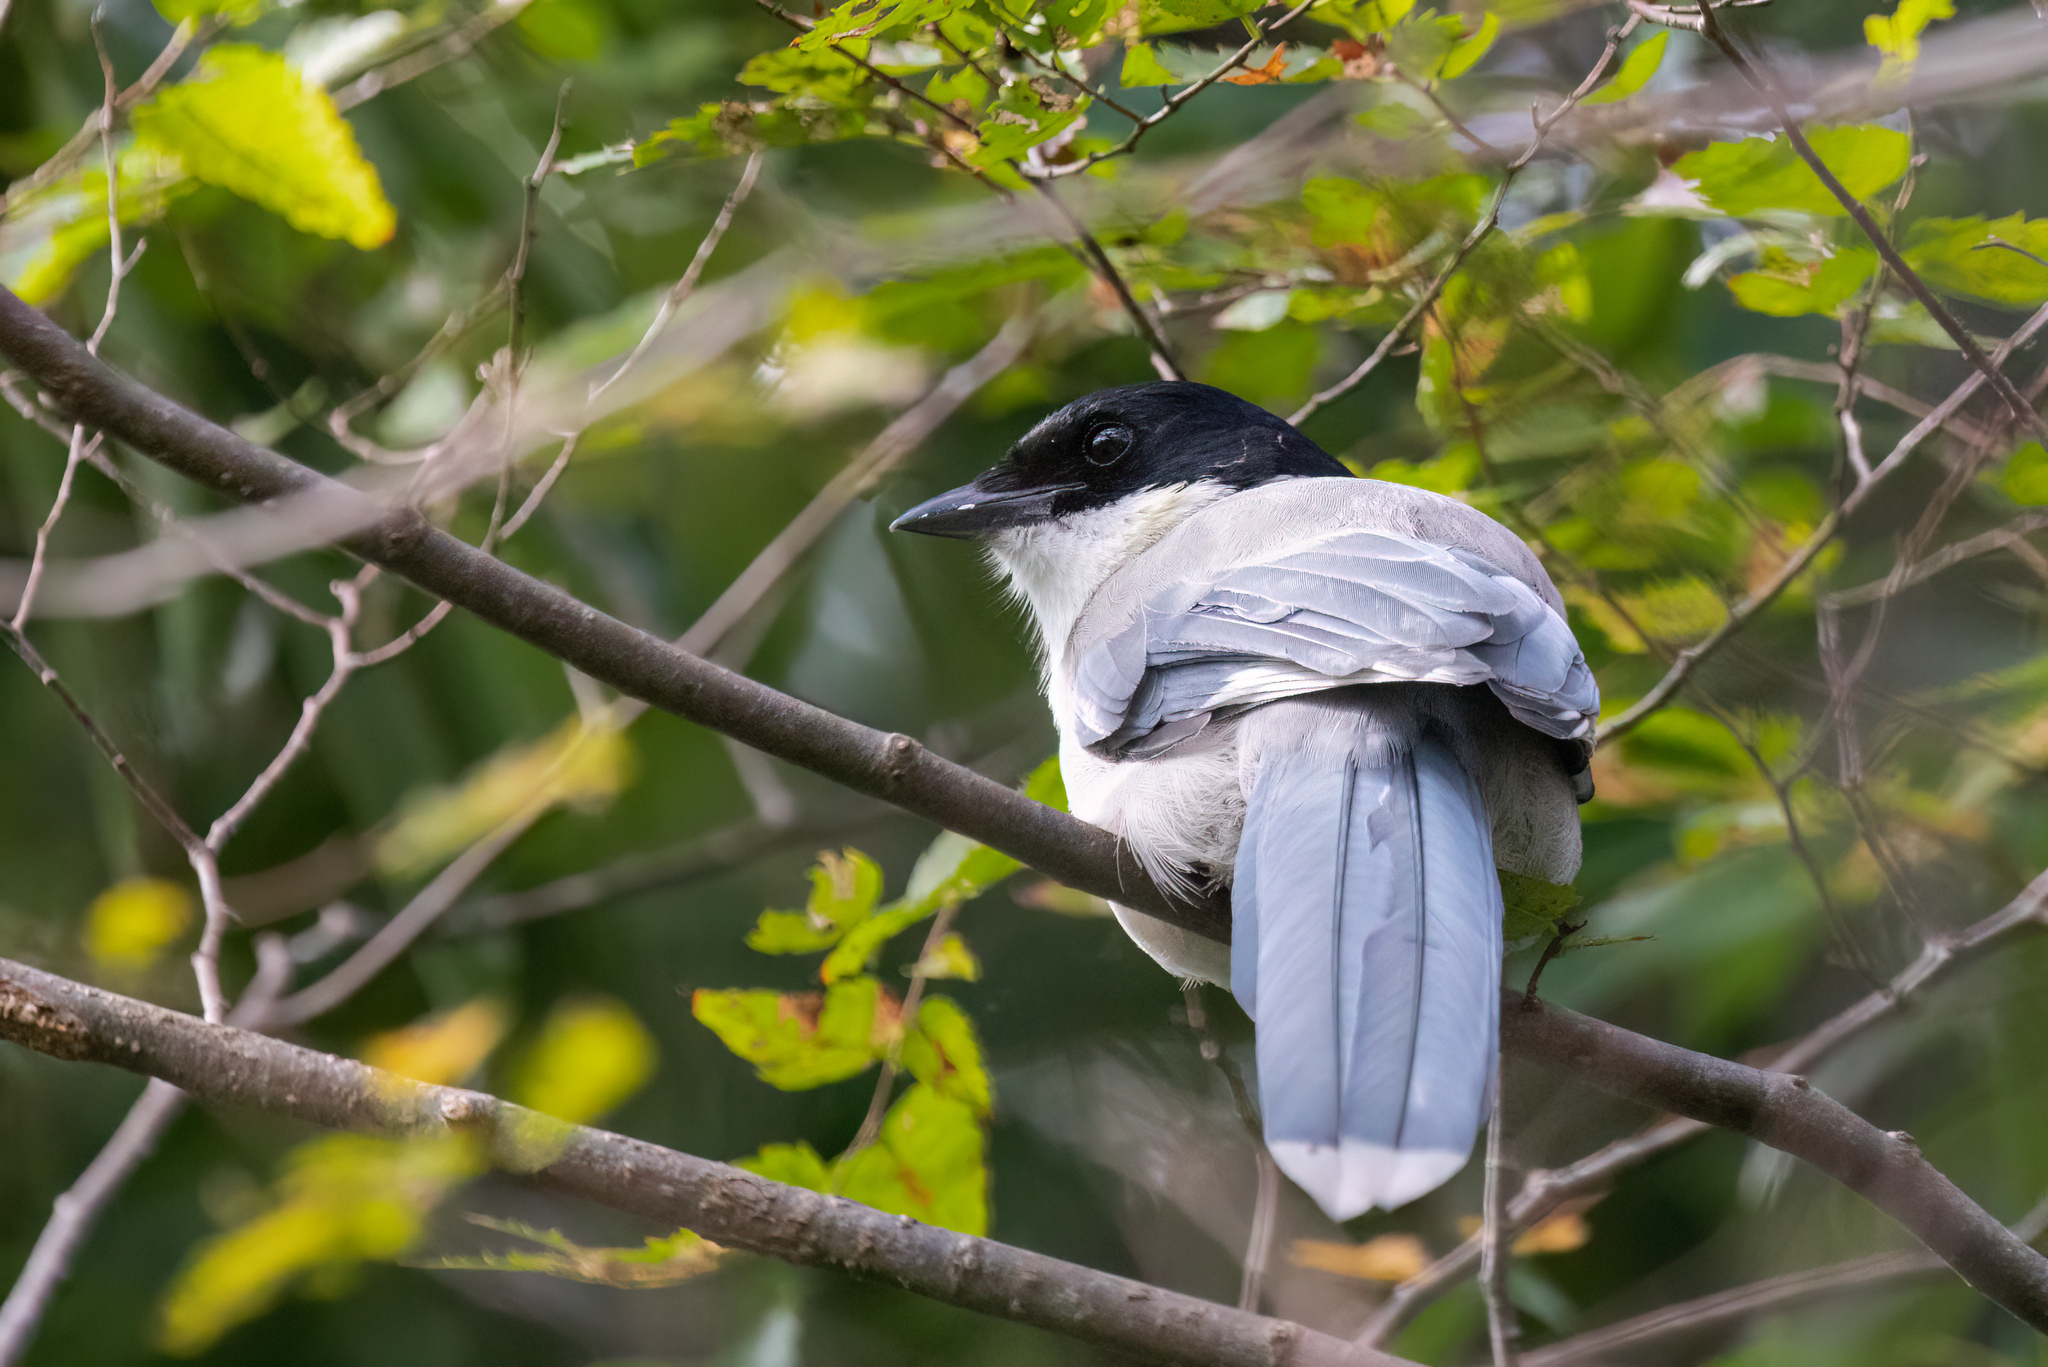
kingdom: Animalia
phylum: Chordata
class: Aves
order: Passeriformes
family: Corvidae
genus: Cyanopica
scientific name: Cyanopica cyanus
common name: Azure-winged magpie
